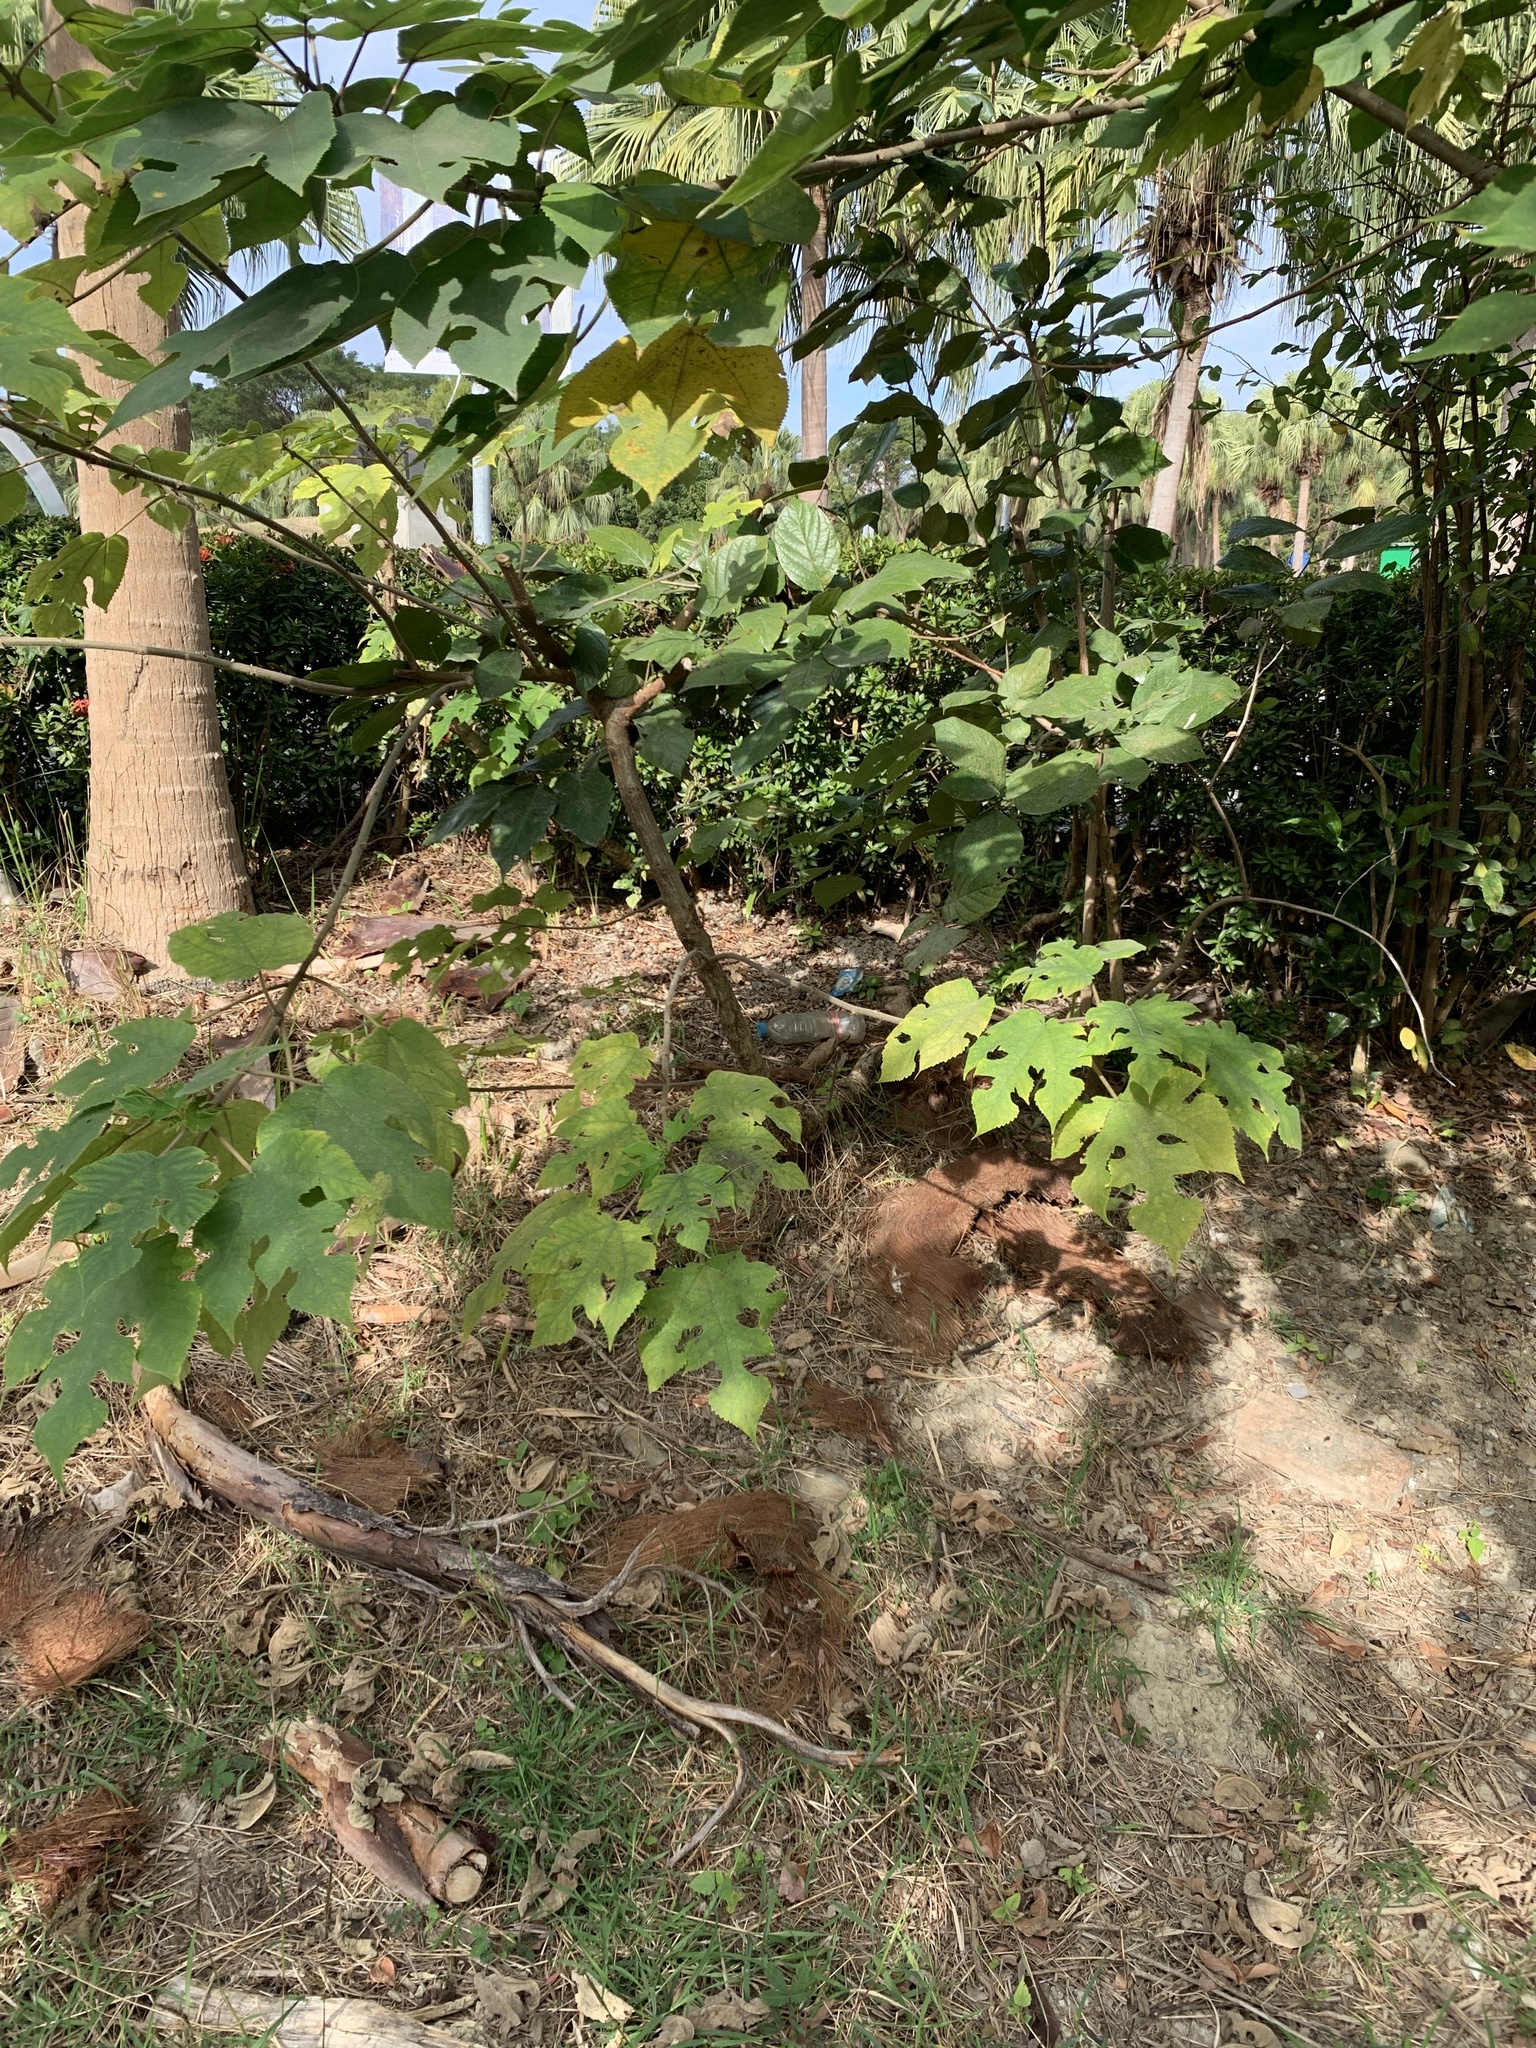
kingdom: Plantae
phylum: Tracheophyta
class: Magnoliopsida
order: Rosales
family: Moraceae
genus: Broussonetia
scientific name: Broussonetia papyrifera
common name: Paper mulberry
